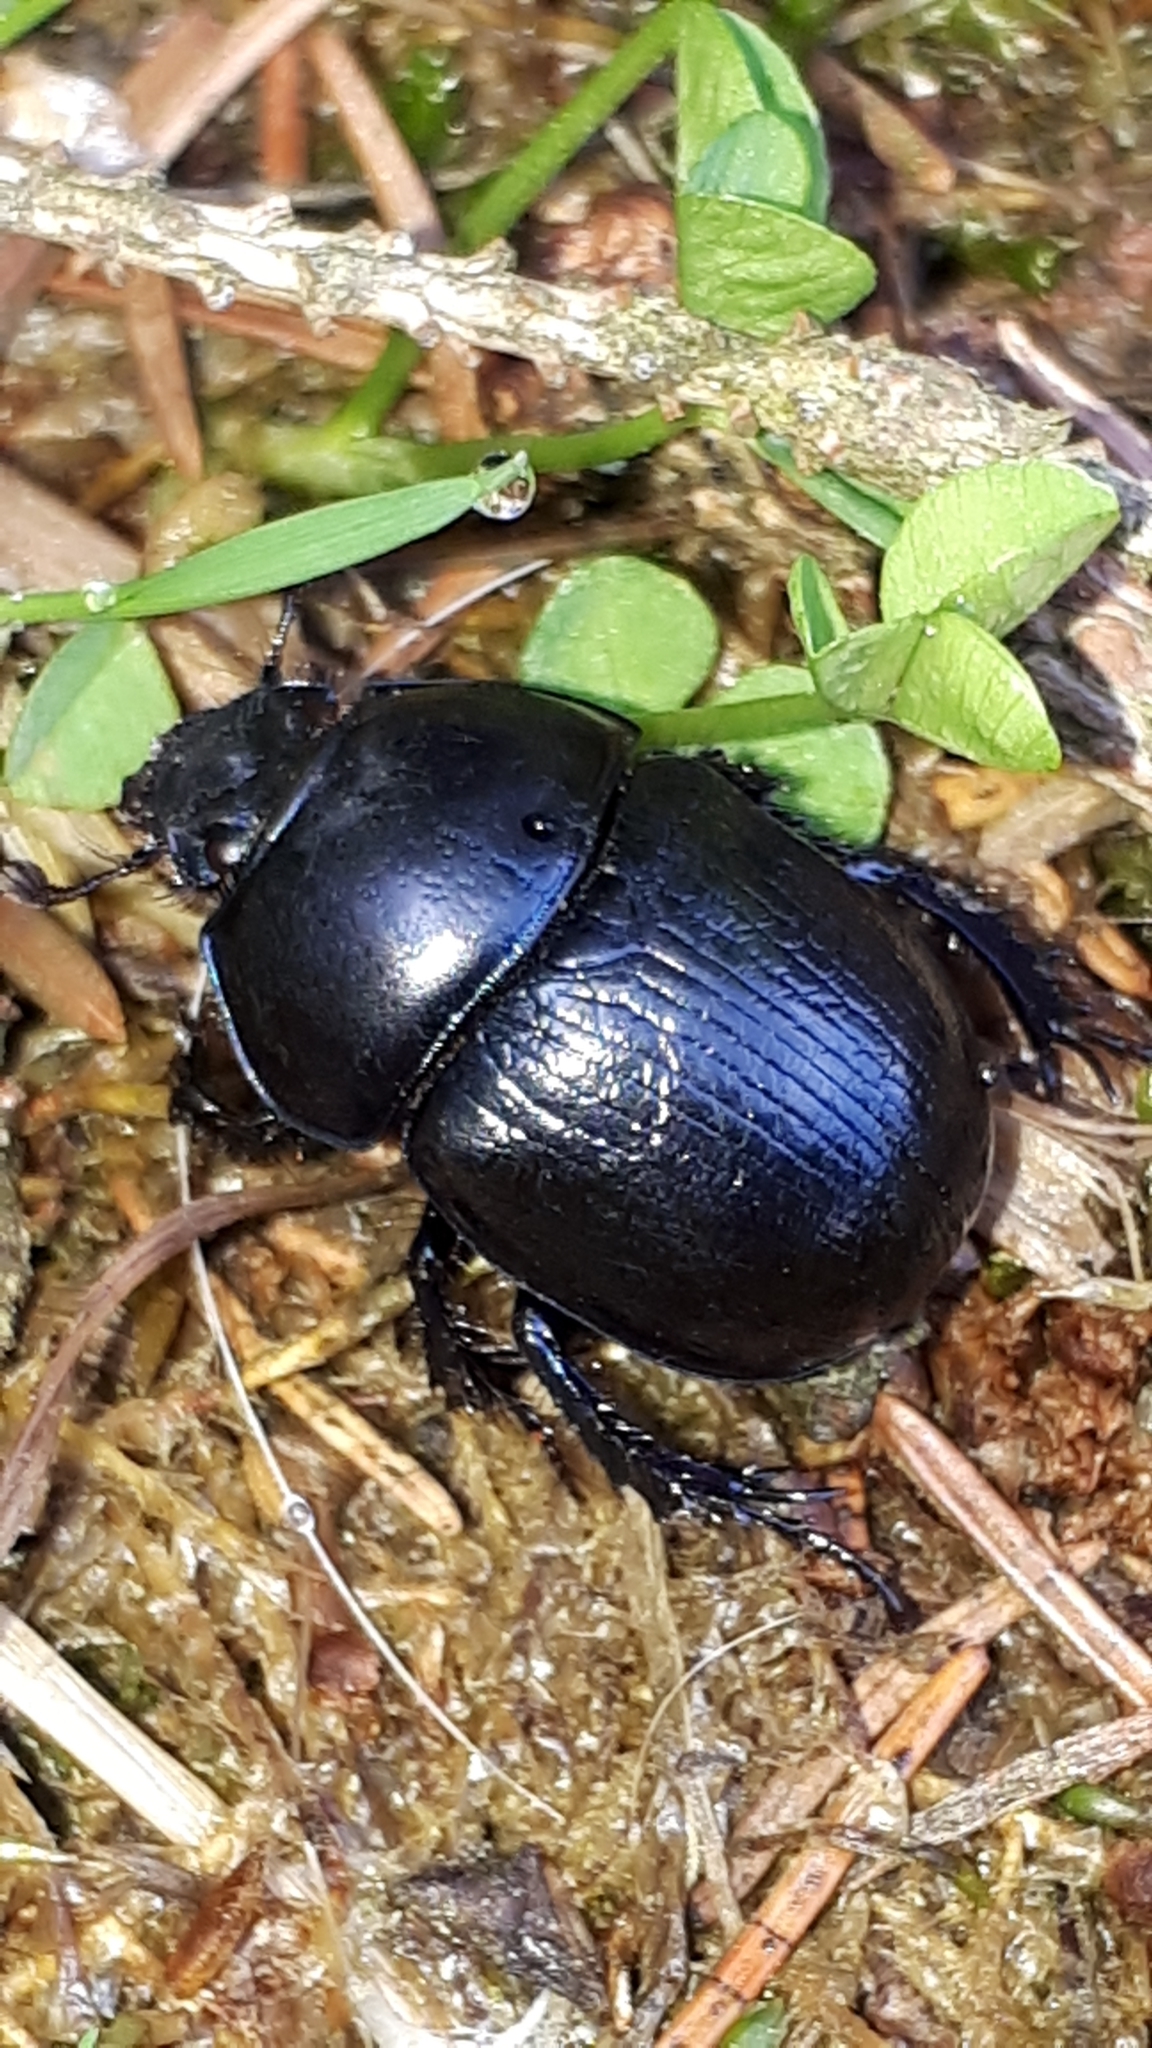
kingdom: Animalia
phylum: Arthropoda
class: Insecta
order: Coleoptera
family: Geotrupidae
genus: Anoplotrupes
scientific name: Anoplotrupes stercorosus
